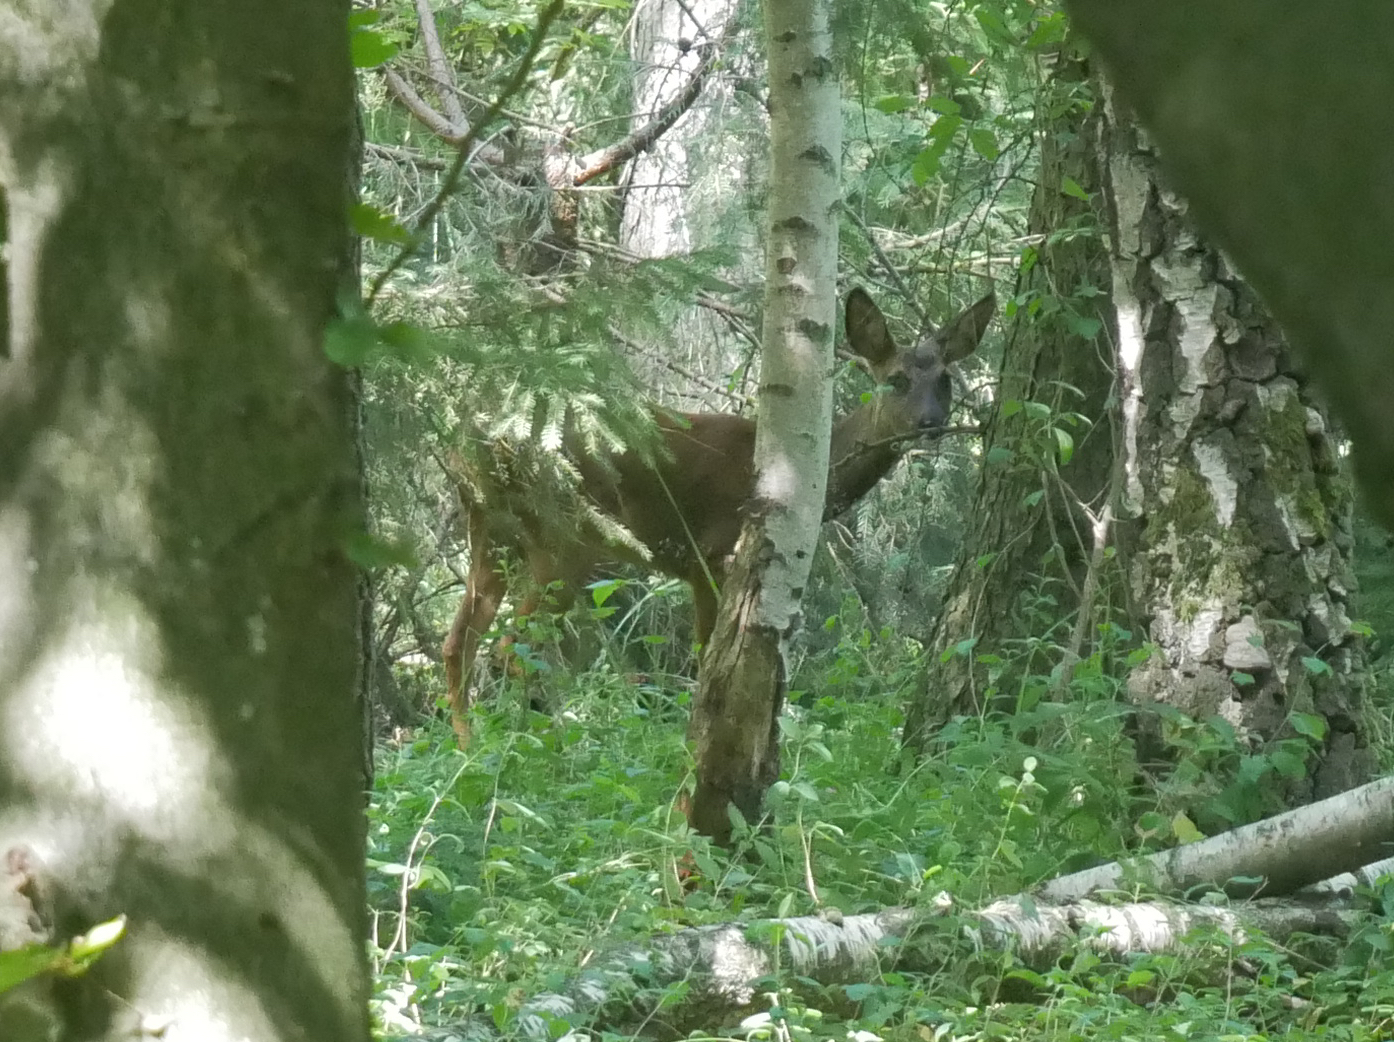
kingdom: Animalia
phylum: Chordata
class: Mammalia
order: Artiodactyla
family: Cervidae
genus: Capreolus
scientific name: Capreolus capreolus
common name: Western roe deer
